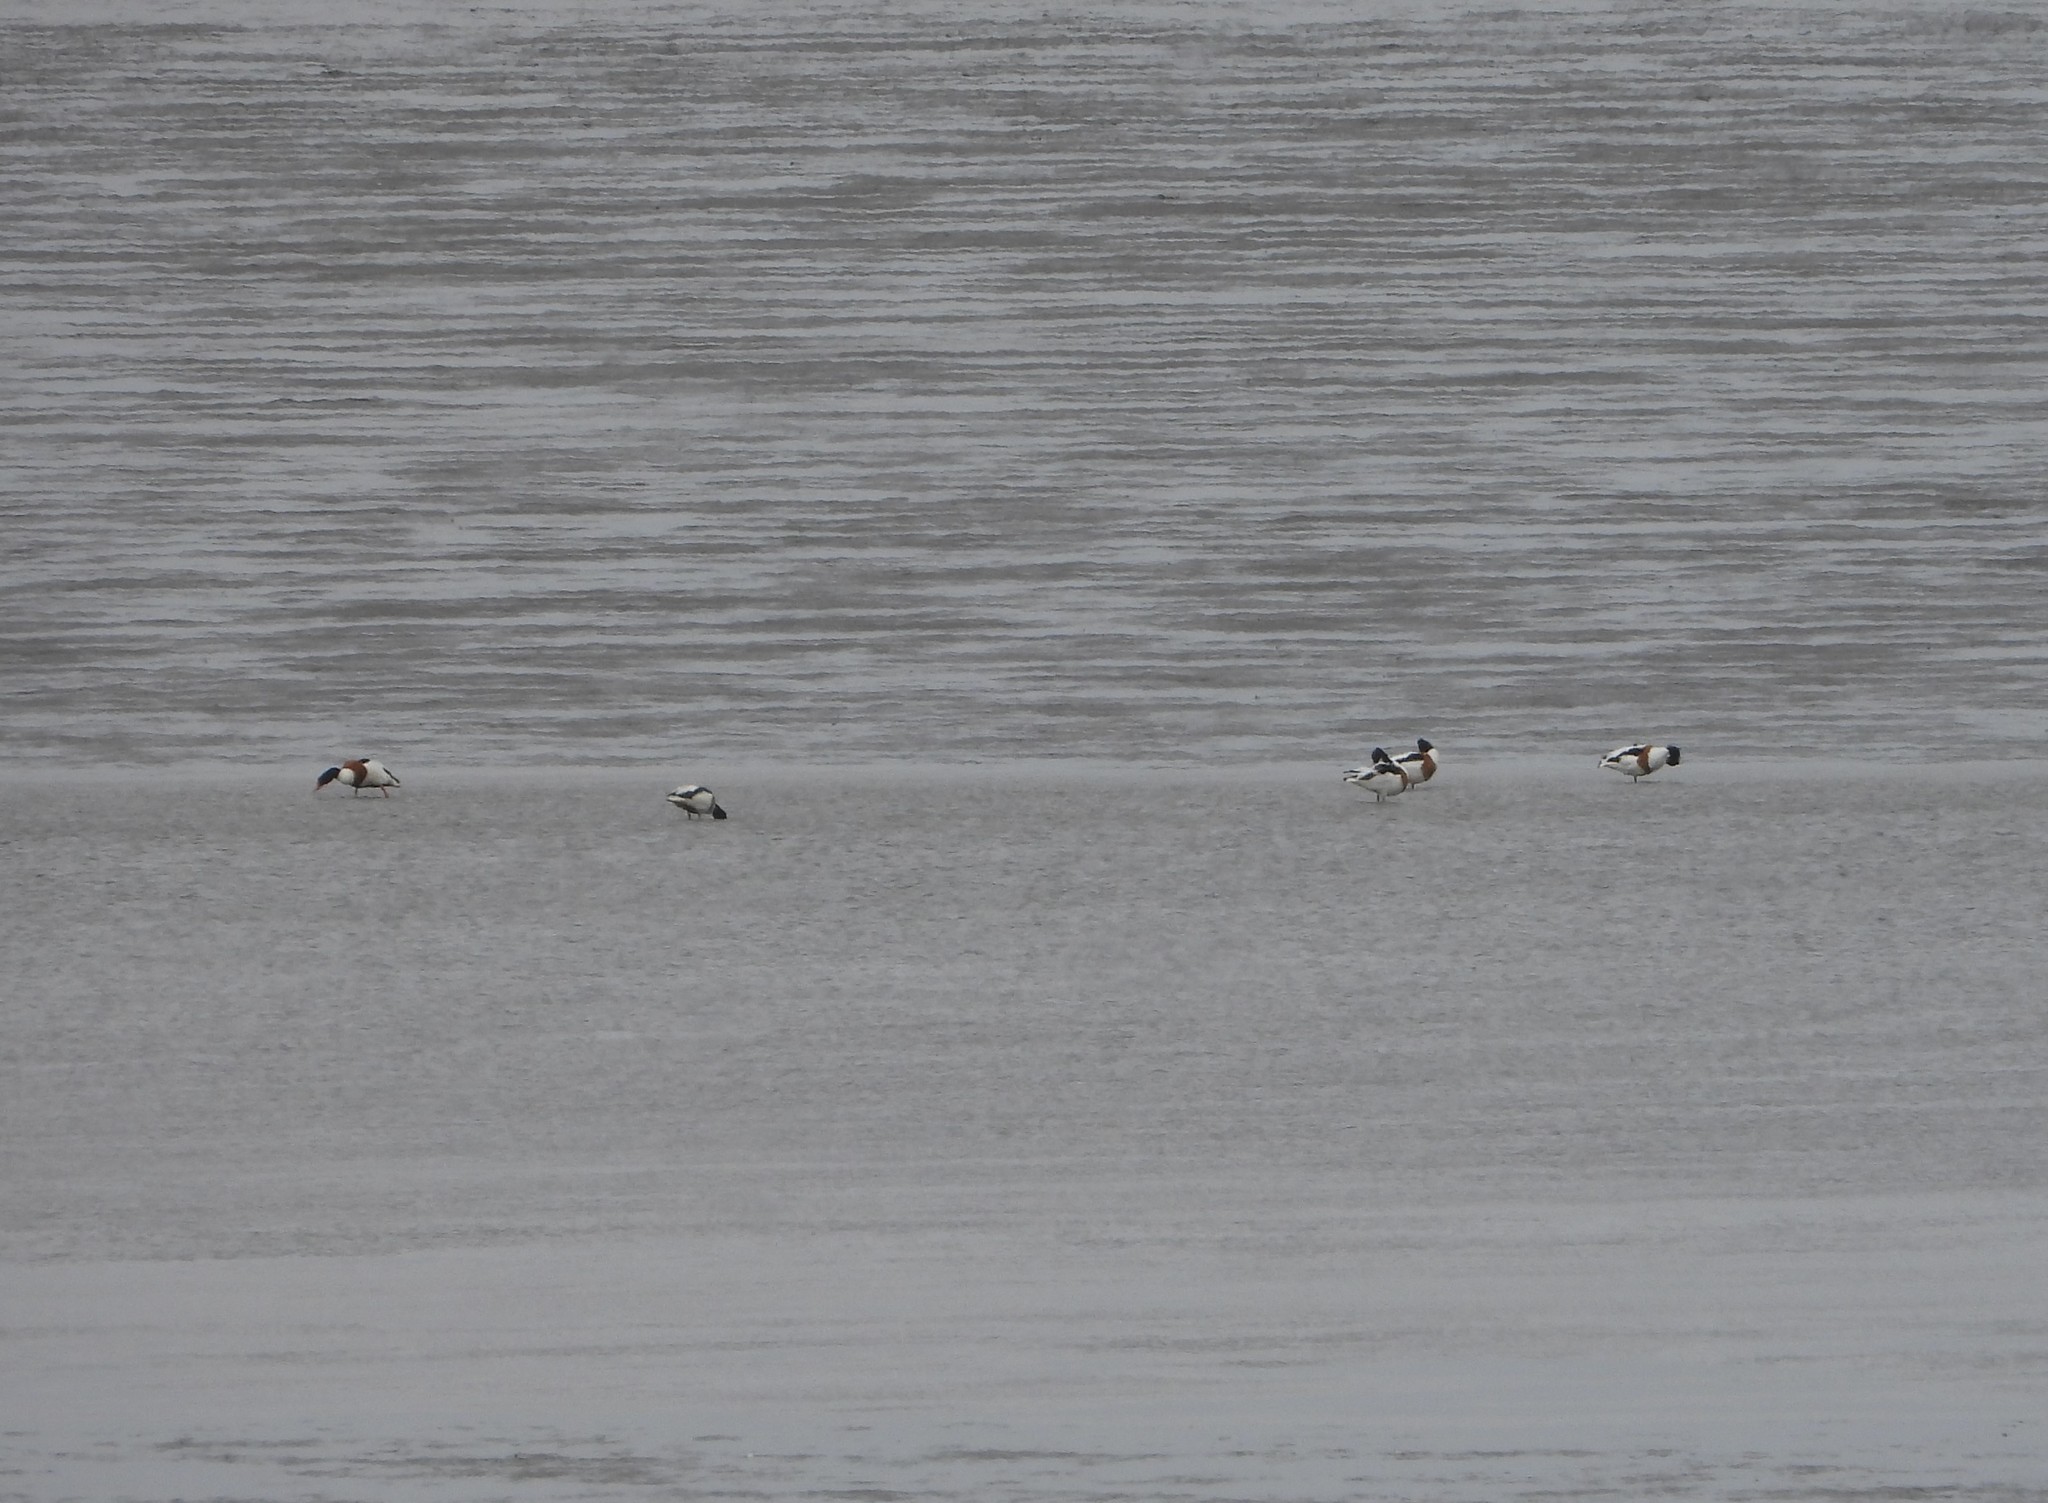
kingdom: Animalia
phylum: Chordata
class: Aves
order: Anseriformes
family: Anatidae
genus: Tadorna
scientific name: Tadorna tadorna
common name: Common shelduck
